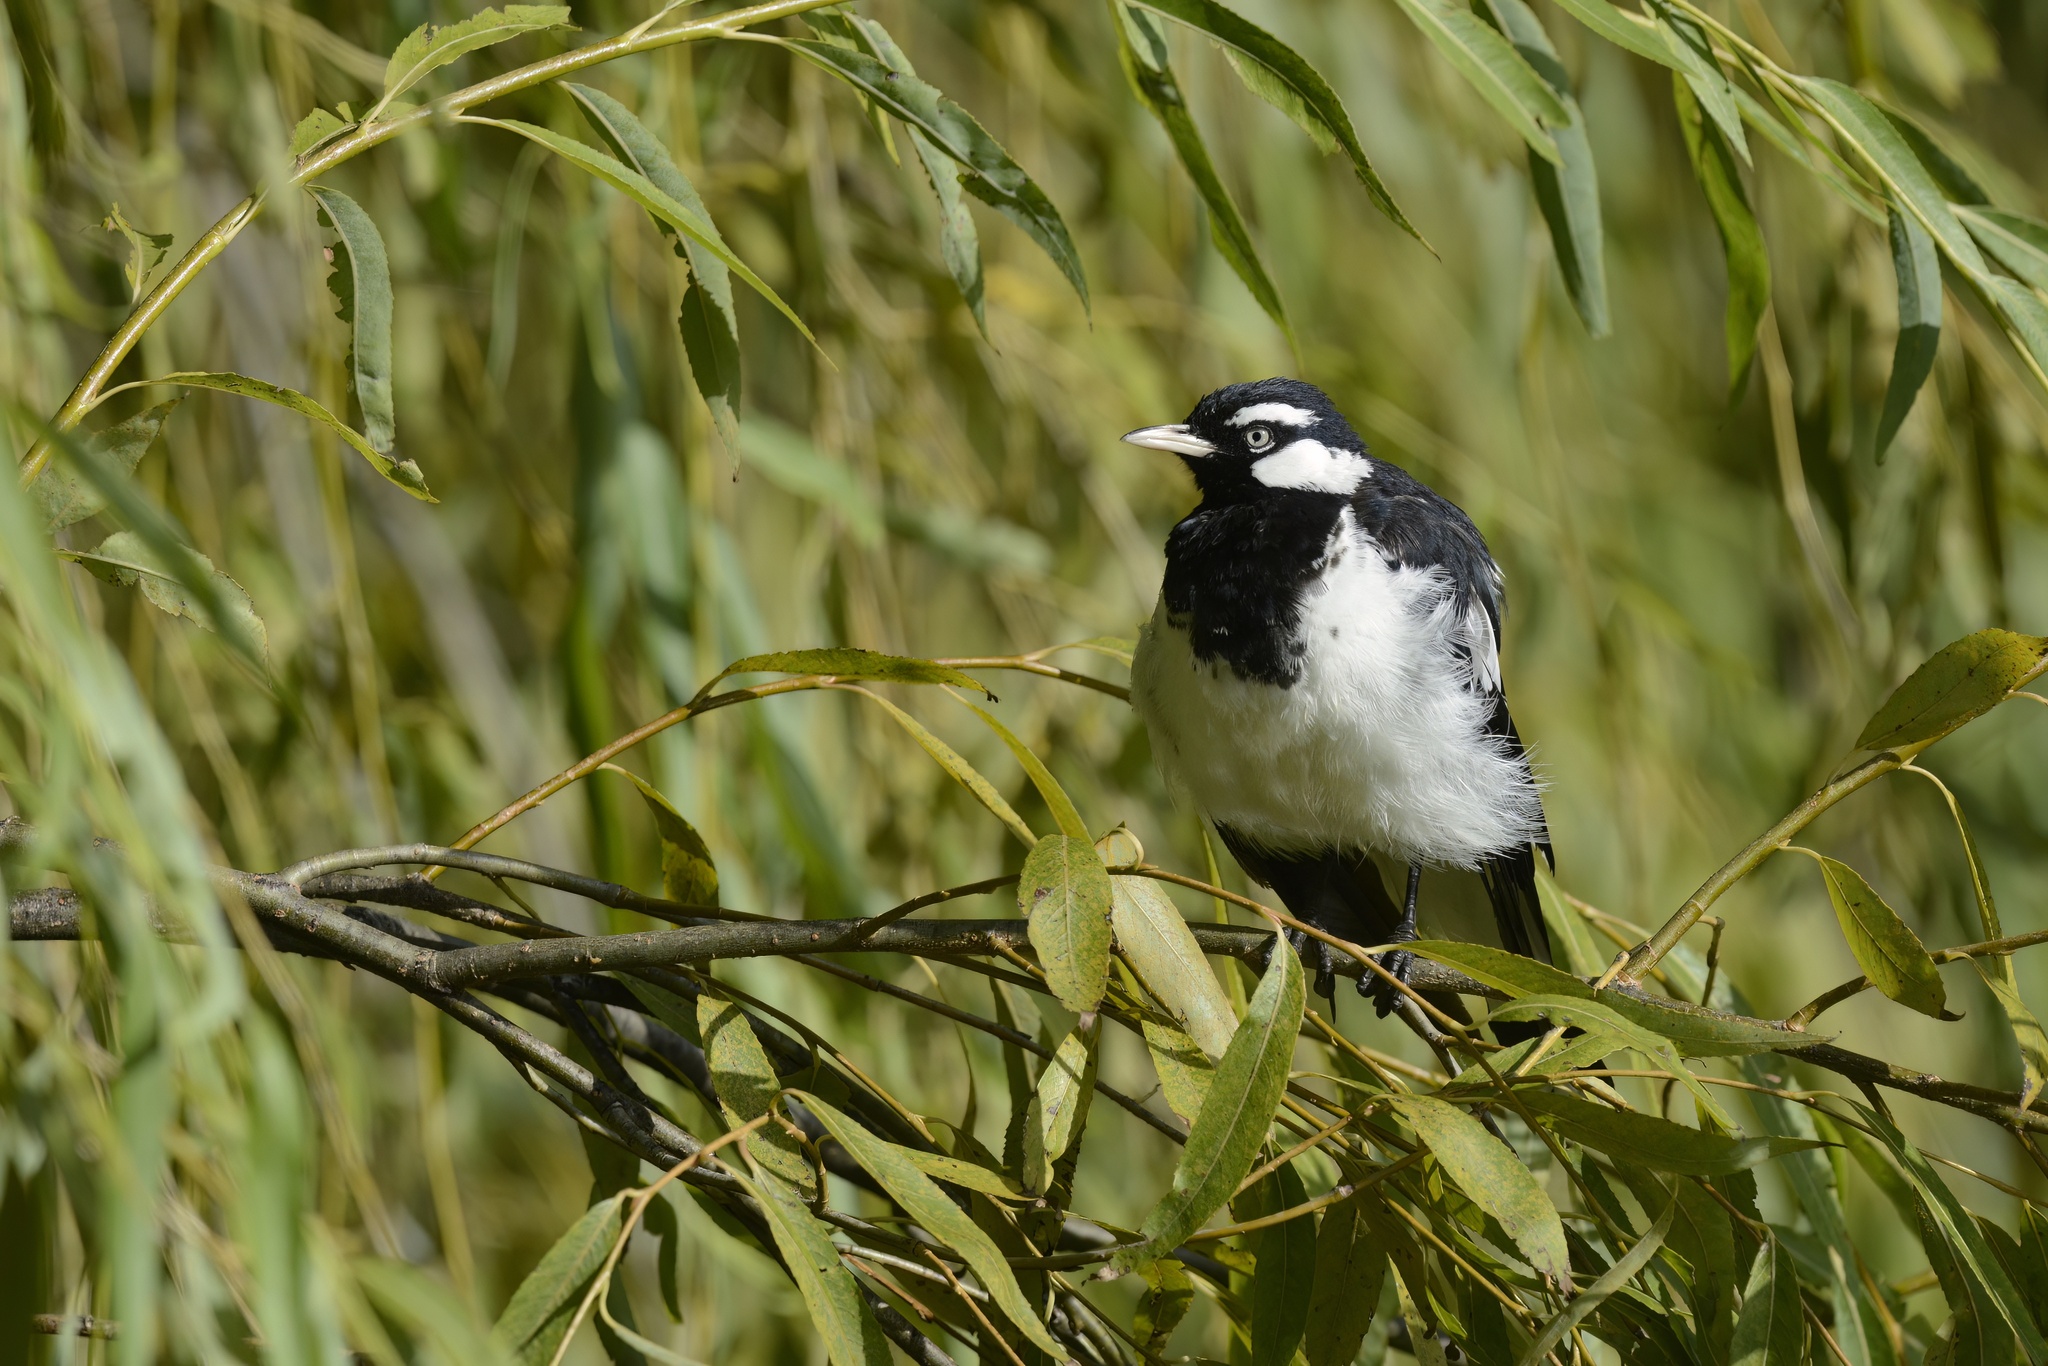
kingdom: Animalia
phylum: Chordata
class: Aves
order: Passeriformes
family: Monarchidae
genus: Grallina
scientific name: Grallina cyanoleuca
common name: Magpie-lark
